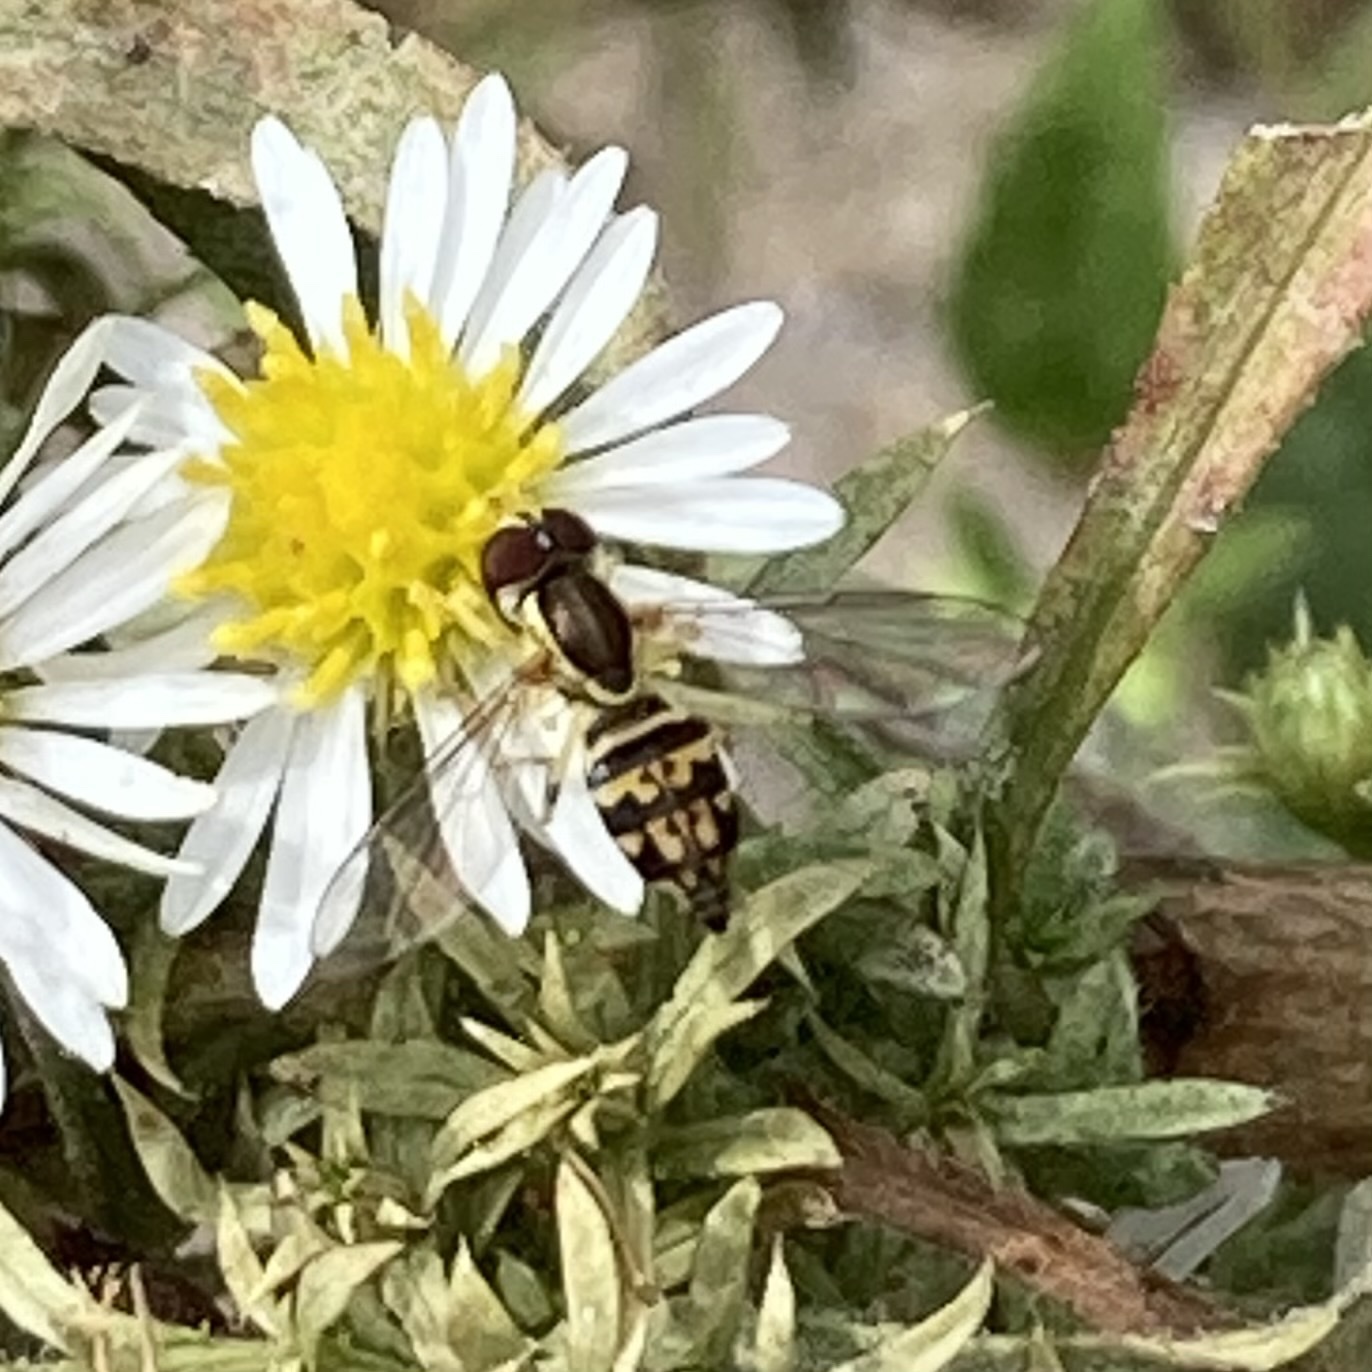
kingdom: Animalia
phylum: Arthropoda
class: Insecta
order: Diptera
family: Syrphidae
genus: Toxomerus
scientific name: Toxomerus geminatus
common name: Eastern calligrapher
